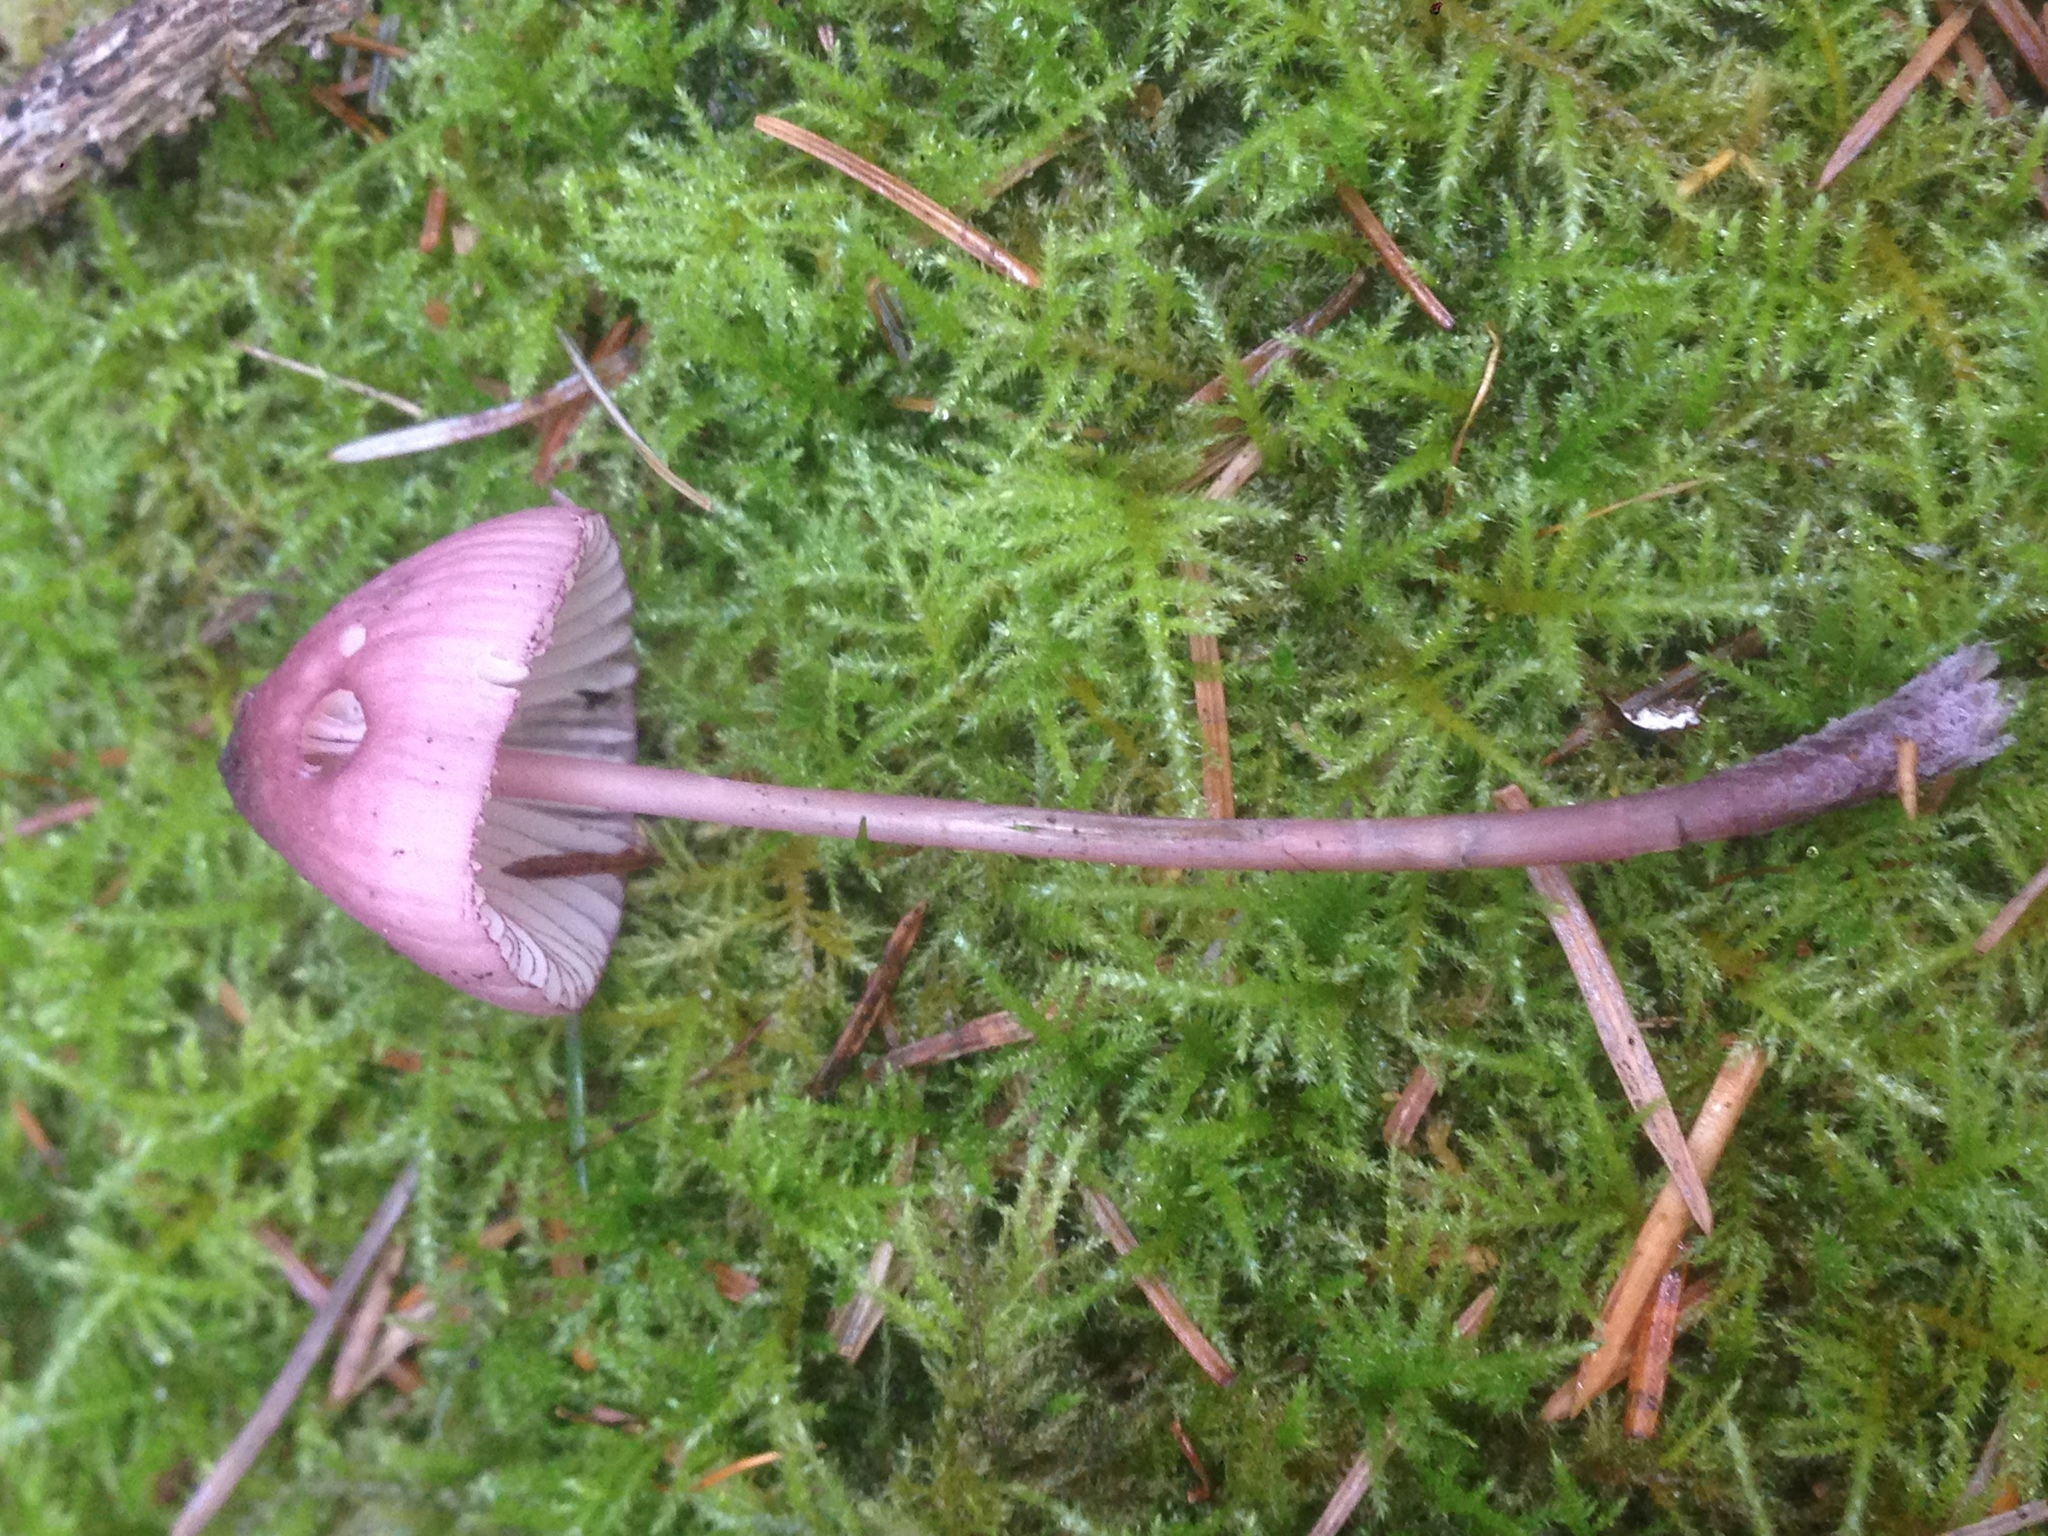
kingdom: Fungi
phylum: Basidiomycota
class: Agaricomycetes
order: Agaricales
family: Mycenaceae
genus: Mycena
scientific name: Mycena purpureofusca
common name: Purple edge bonnet
